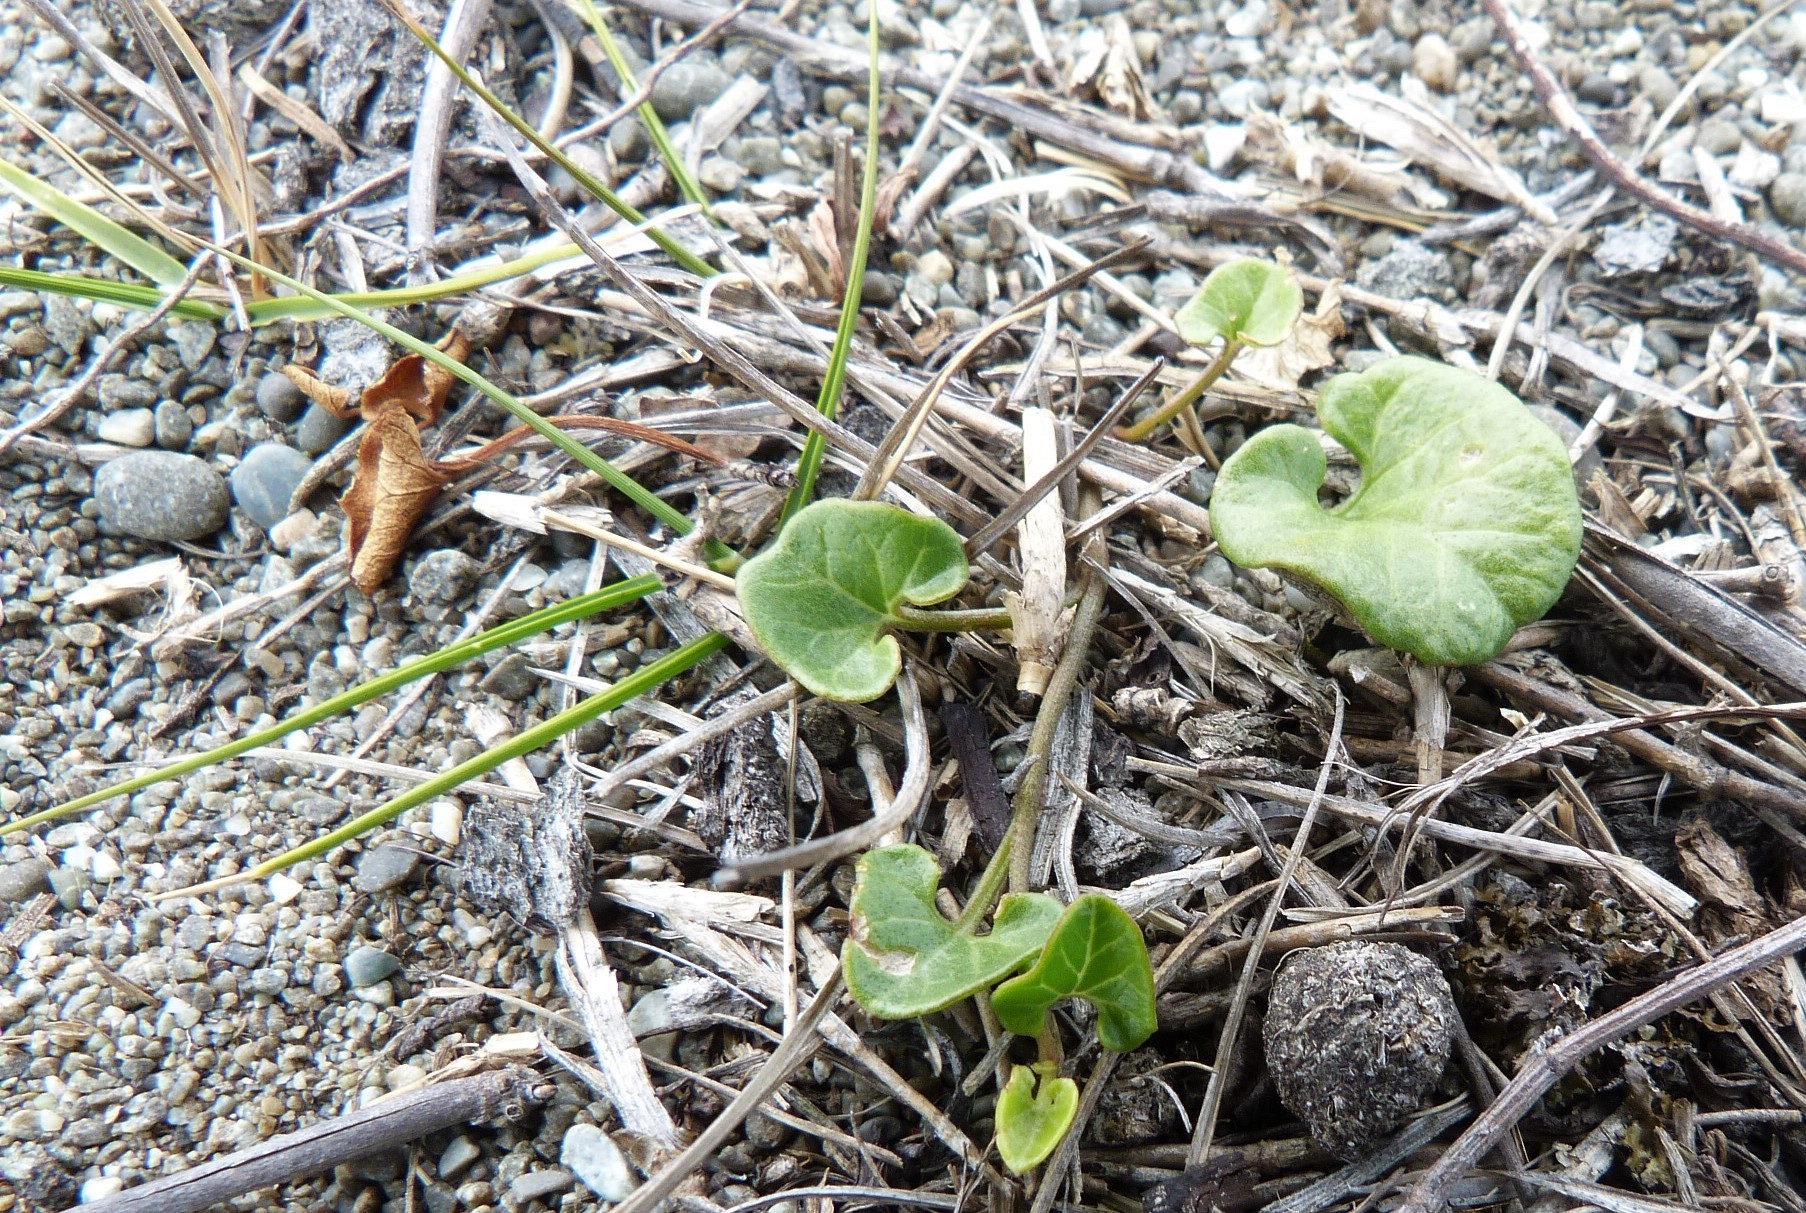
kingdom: Plantae
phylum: Tracheophyta
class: Magnoliopsida
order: Solanales
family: Convolvulaceae
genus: Calystegia
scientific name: Calystegia soldanella
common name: Sea bindweed
